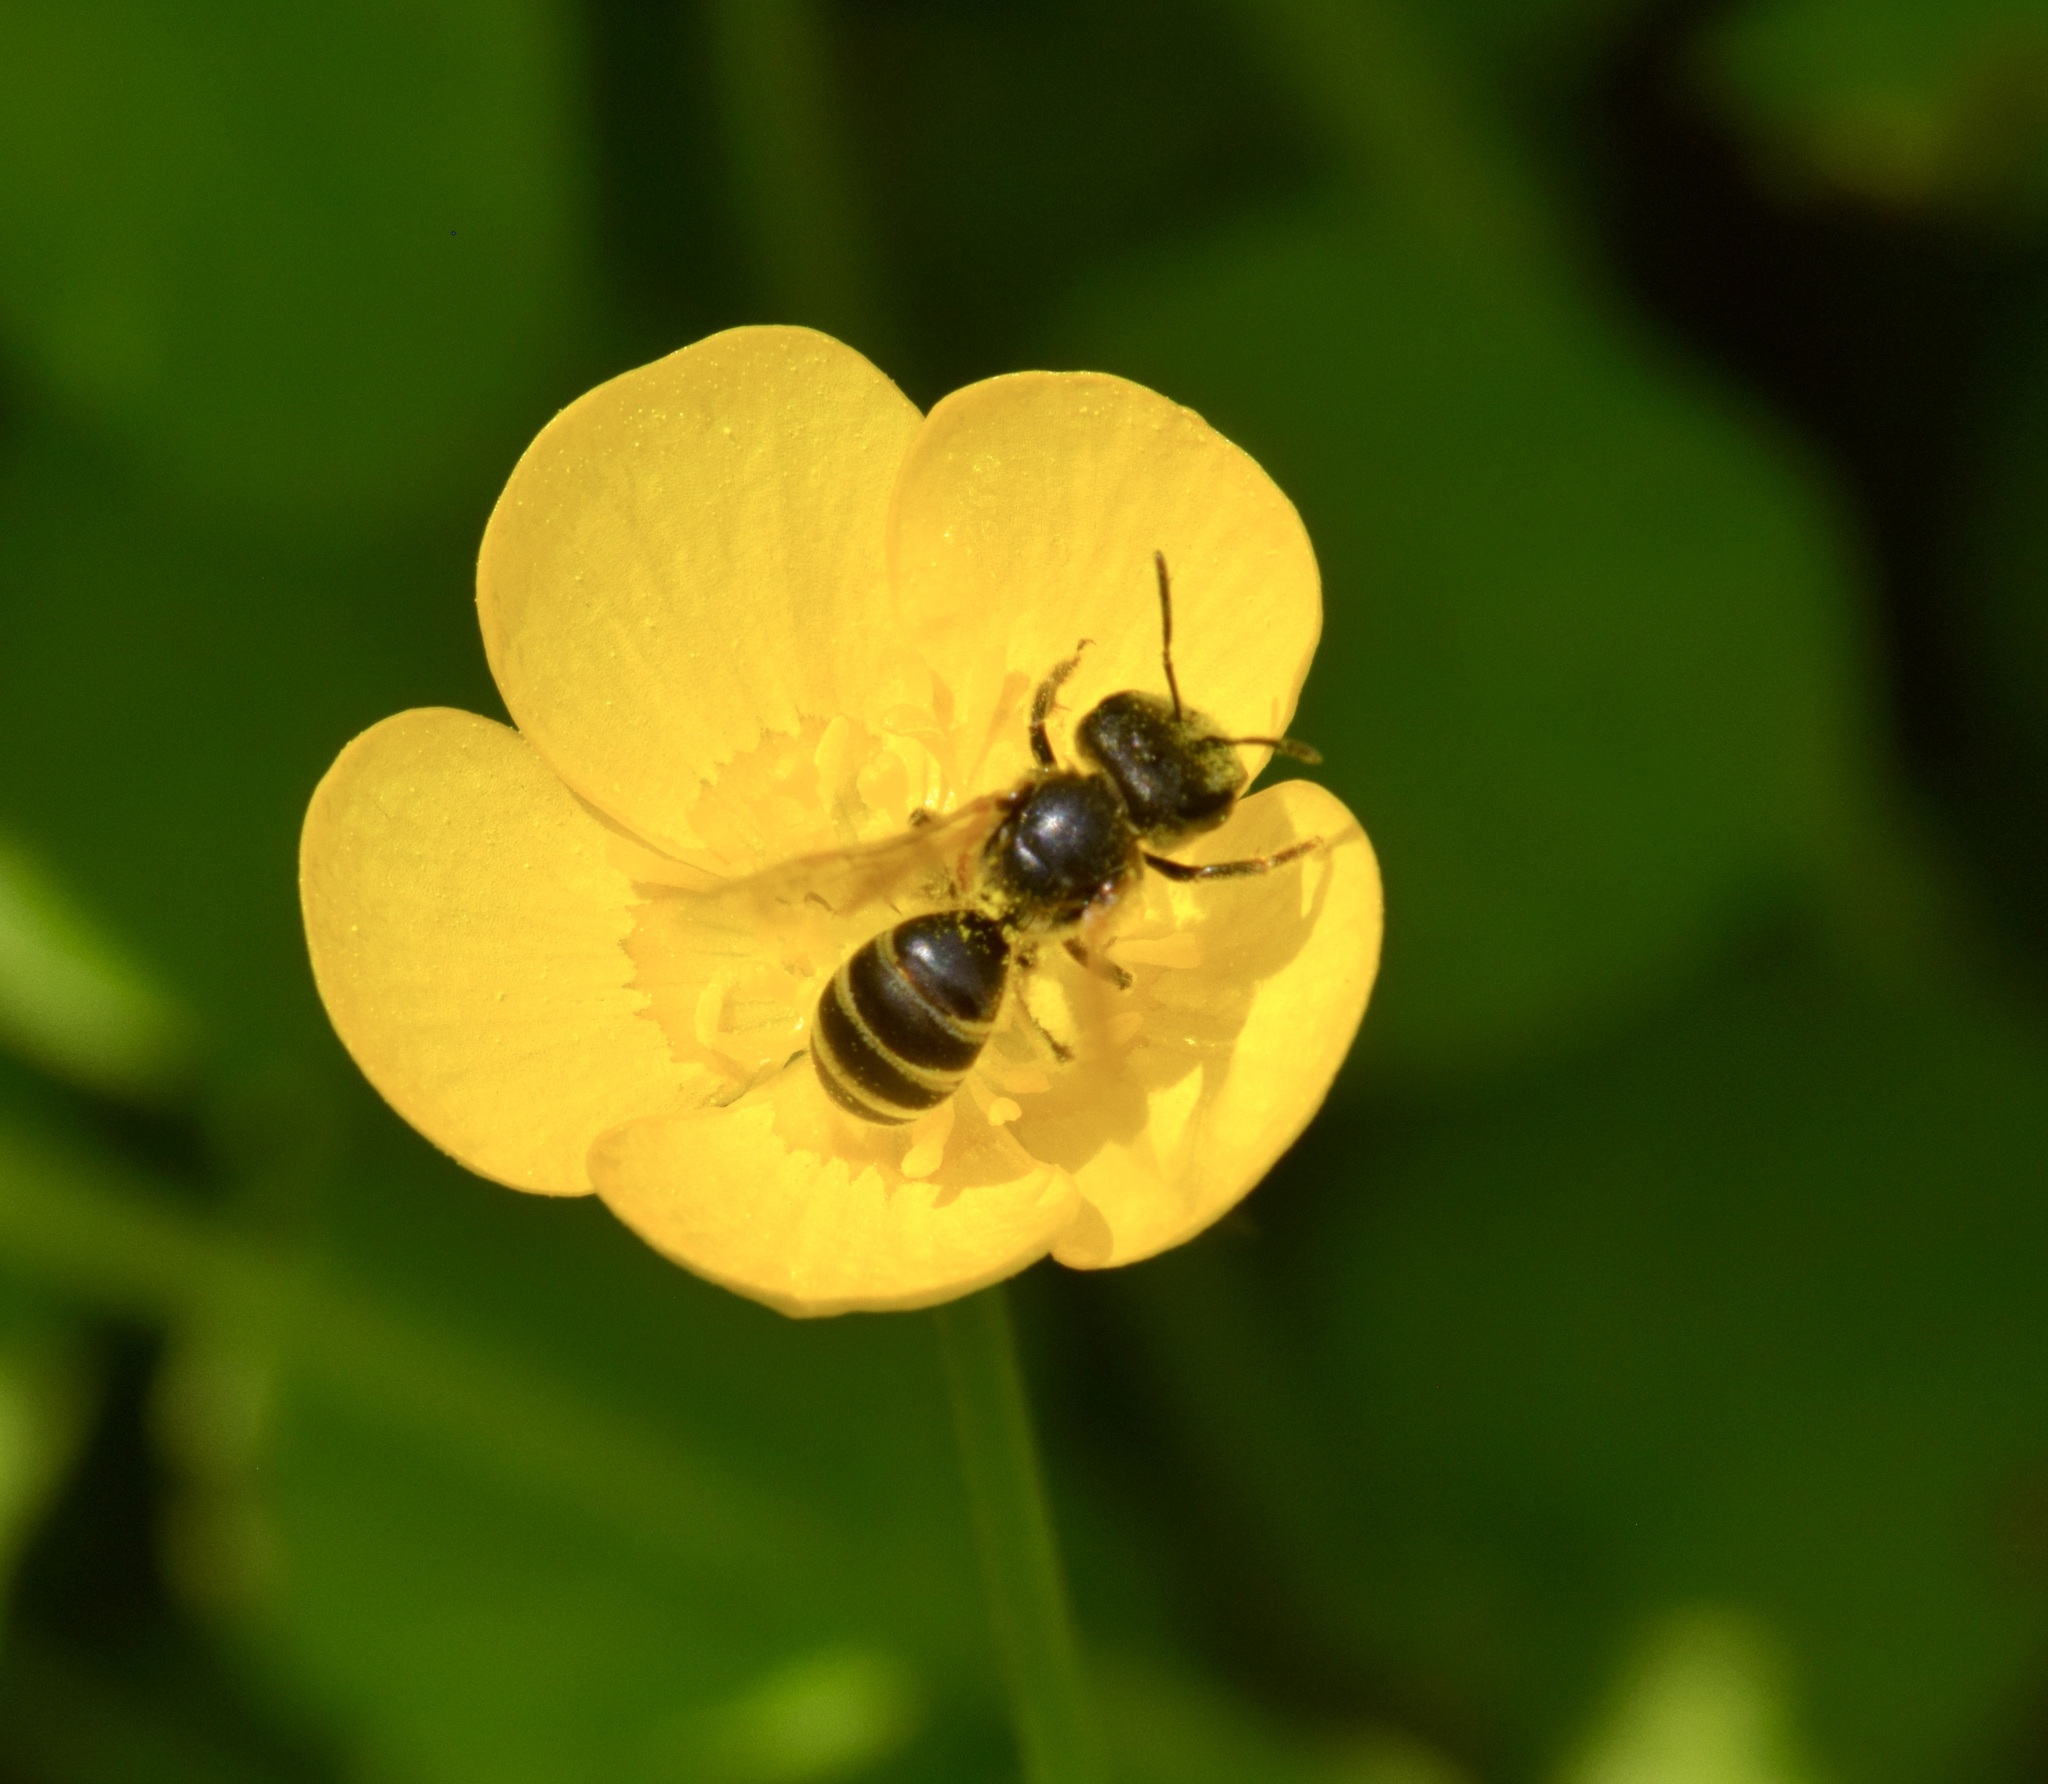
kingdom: Animalia
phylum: Arthropoda
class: Insecta
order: Hymenoptera
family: Halictidae
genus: Halictus
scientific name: Halictus ligatus
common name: Ligated furrow bee
